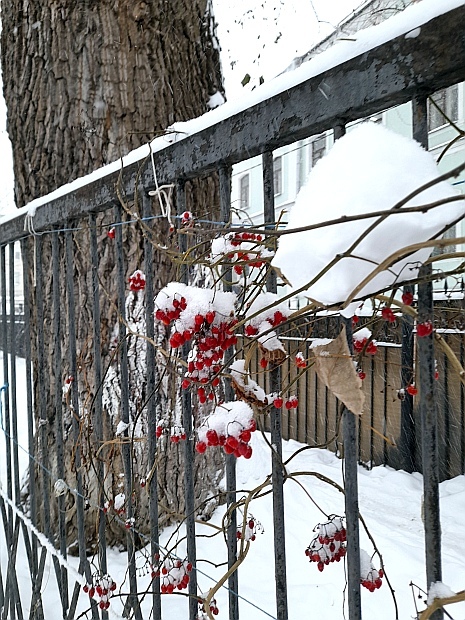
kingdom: Plantae
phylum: Tracheophyta
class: Magnoliopsida
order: Solanales
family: Solanaceae
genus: Solanum
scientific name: Solanum dulcamara
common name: Climbing nightshade
